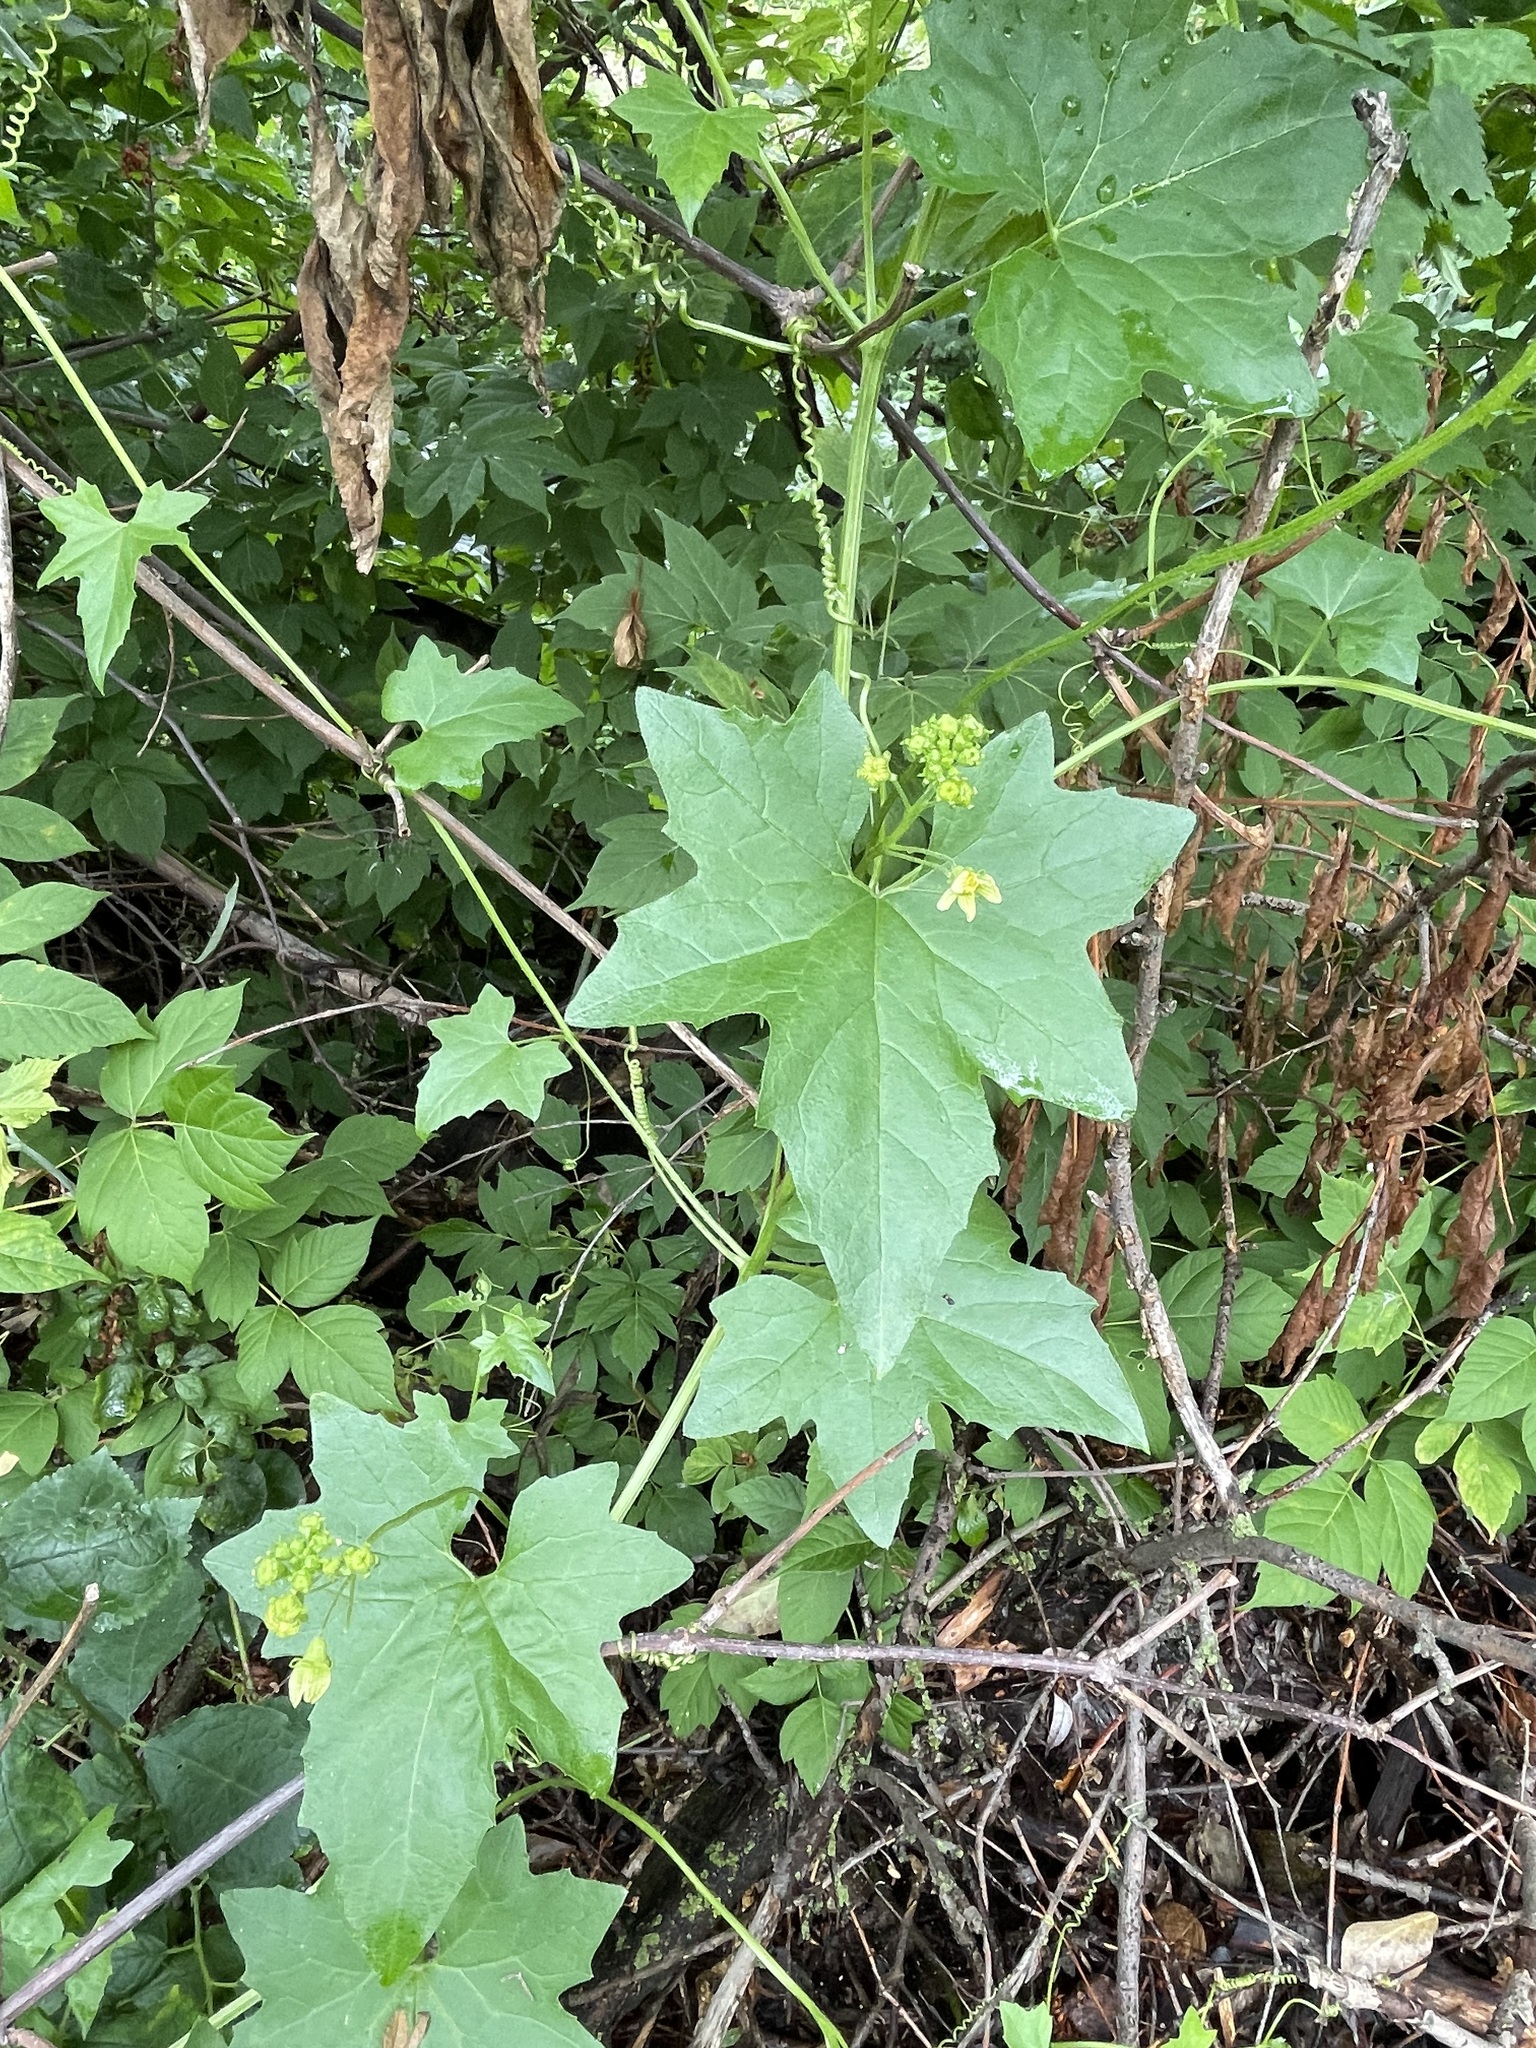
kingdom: Plantae
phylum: Tracheophyta
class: Magnoliopsida
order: Cucurbitales
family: Cucurbitaceae
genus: Bryonia
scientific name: Bryonia alba
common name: White bryony
